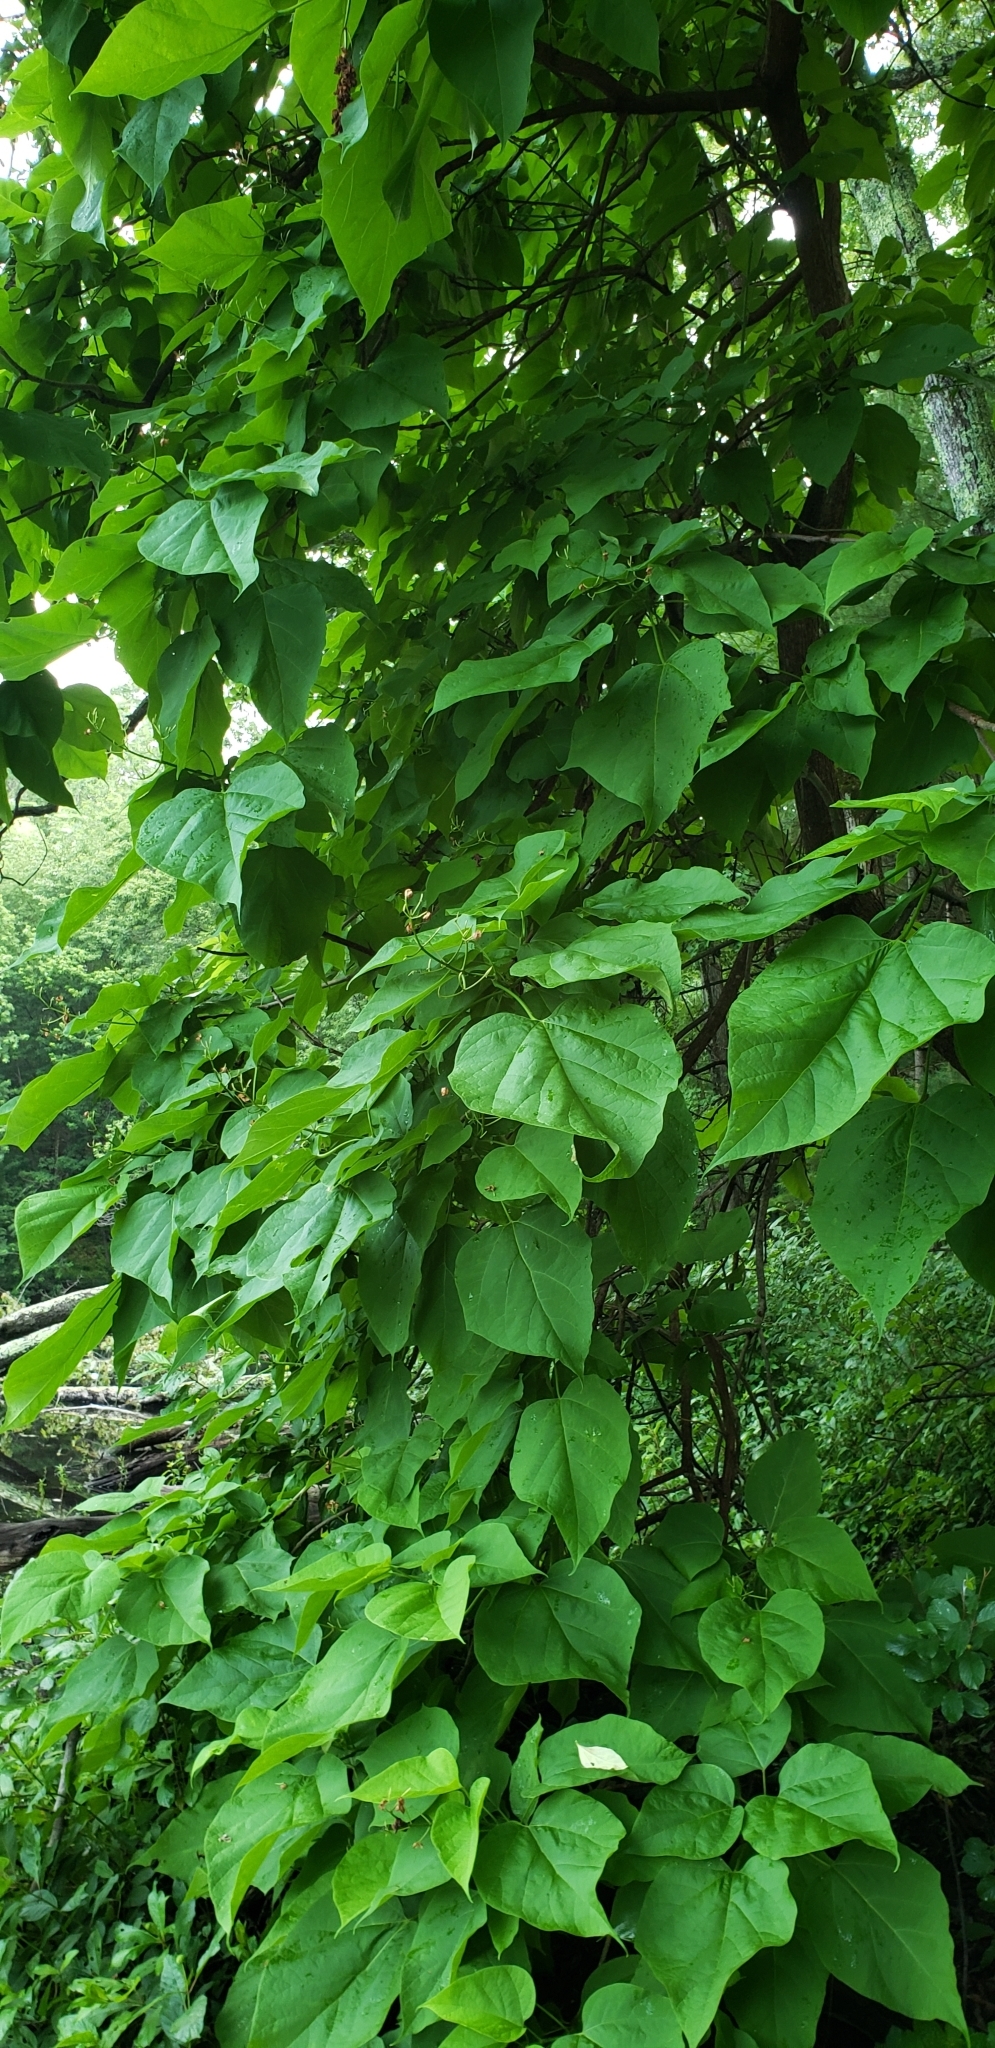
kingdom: Plantae
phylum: Tracheophyta
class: Magnoliopsida
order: Lamiales
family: Bignoniaceae
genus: Catalpa
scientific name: Catalpa speciosa
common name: Northern catalpa
